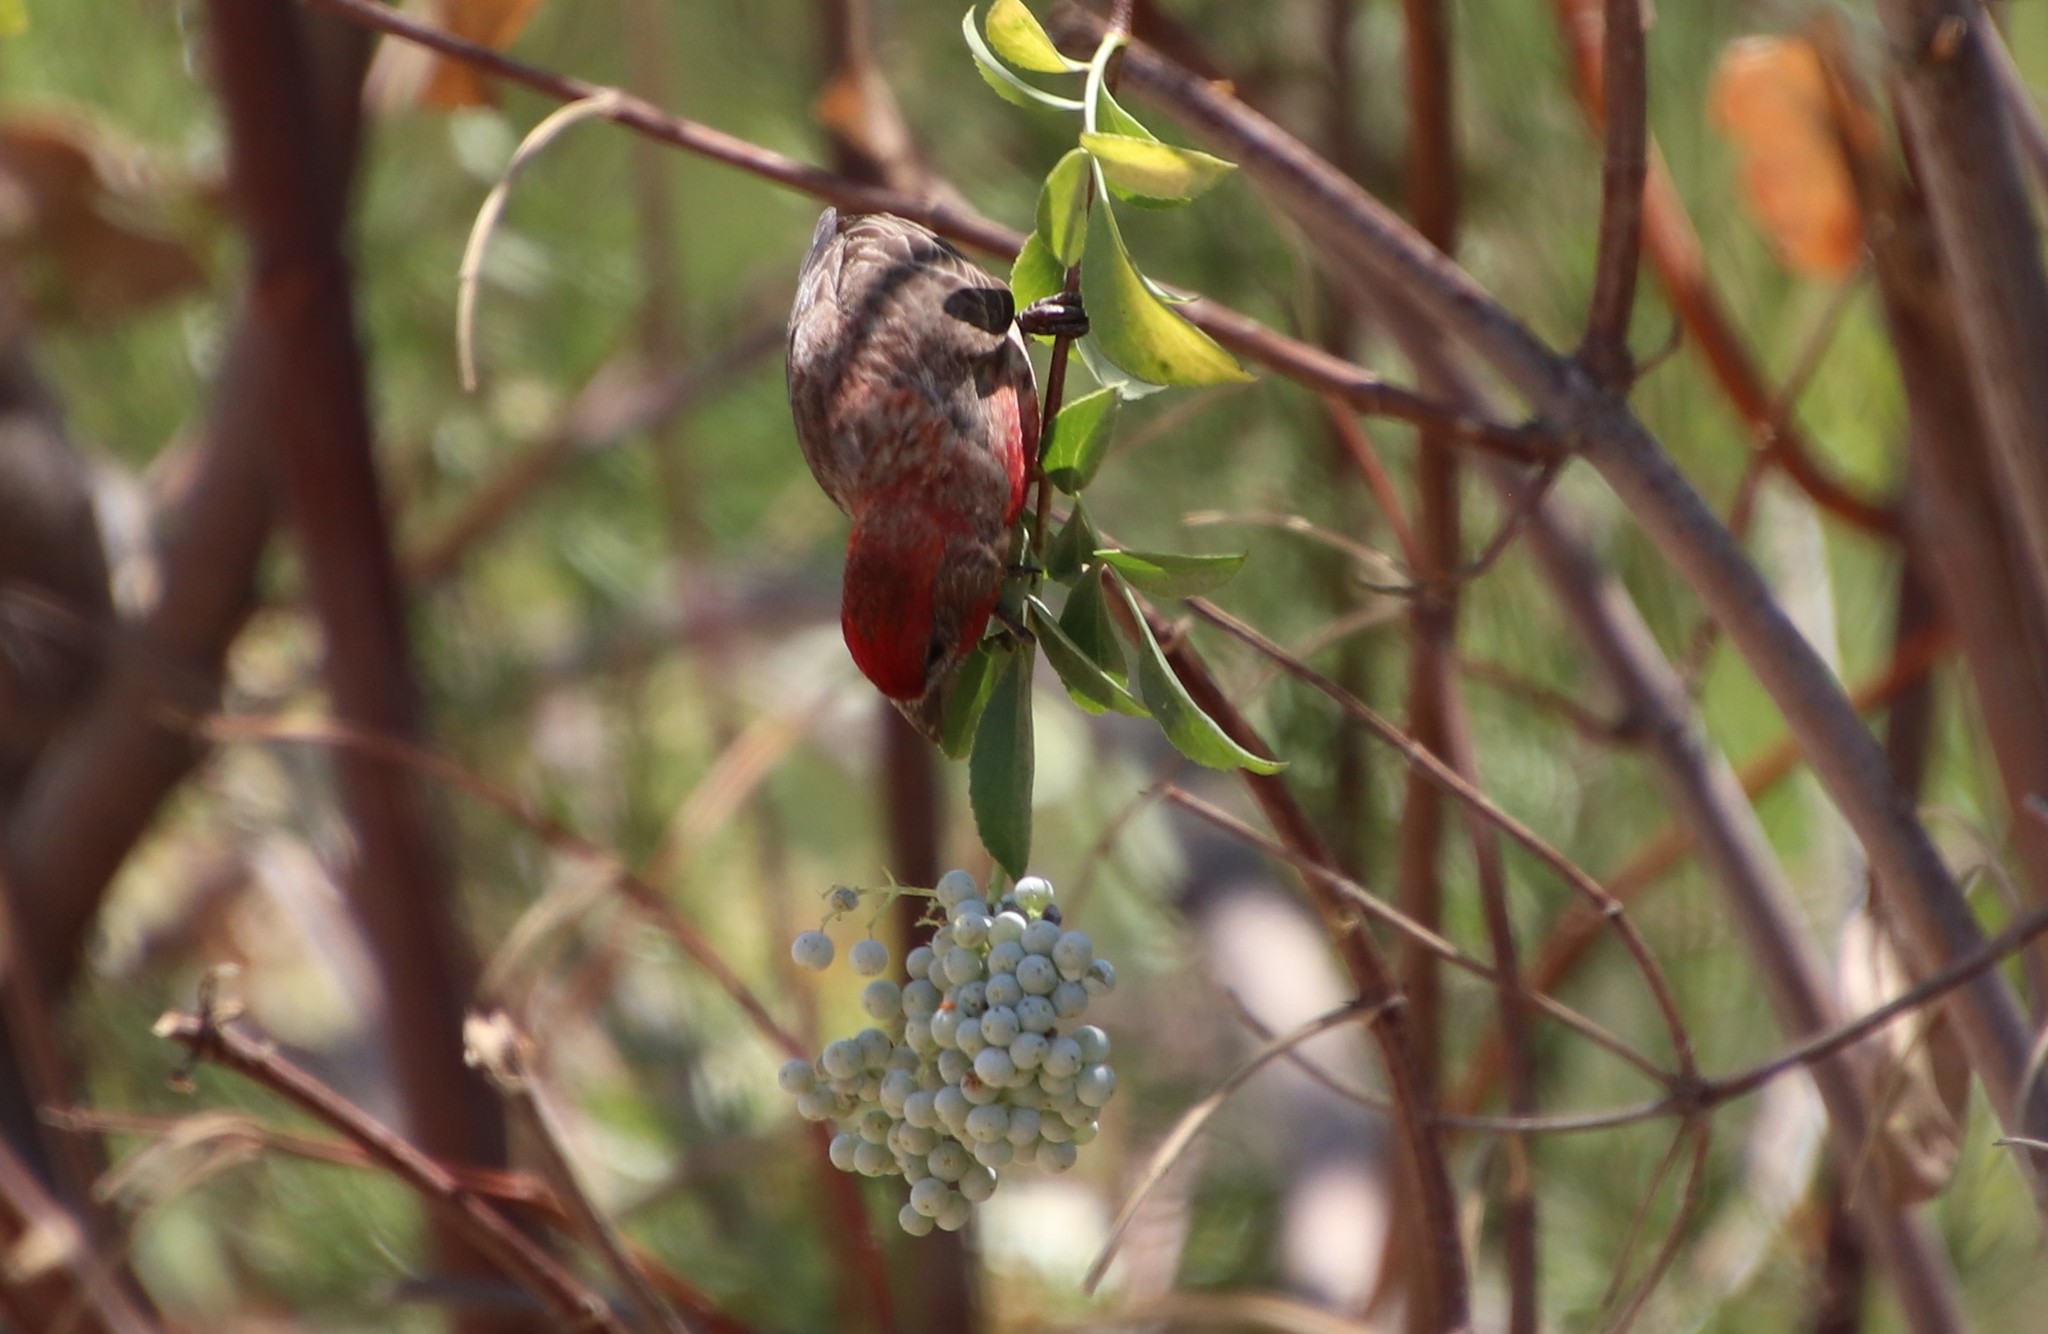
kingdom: Animalia
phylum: Chordata
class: Aves
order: Passeriformes
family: Fringillidae
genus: Haemorhous
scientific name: Haemorhous mexicanus
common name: House finch
